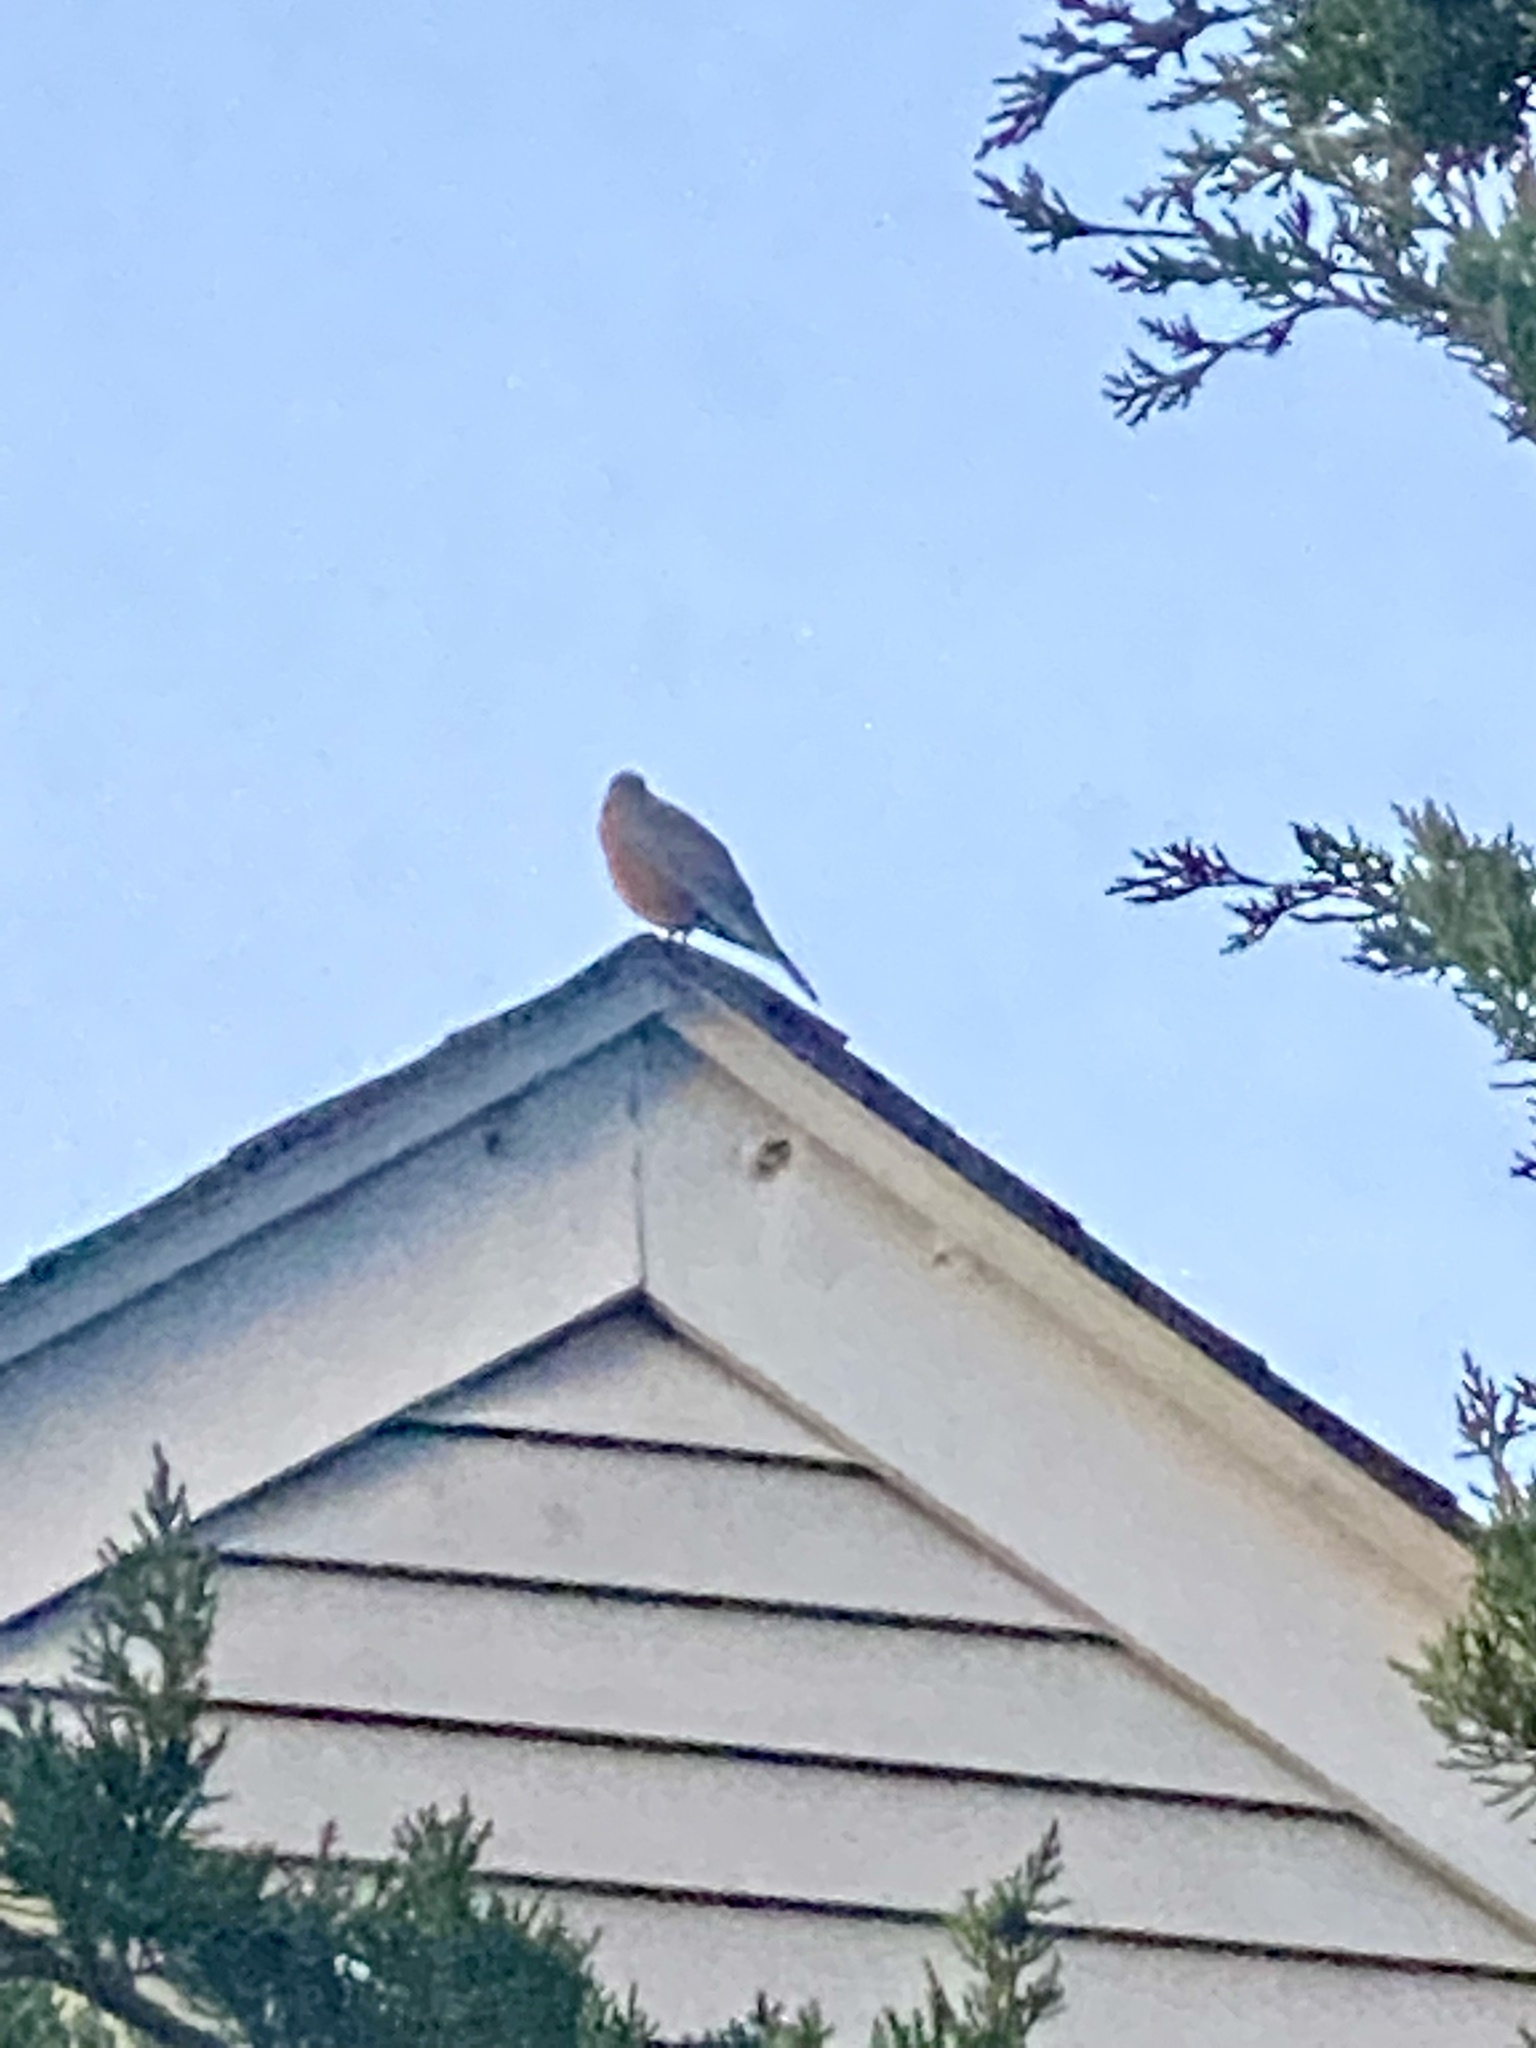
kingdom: Animalia
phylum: Chordata
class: Aves
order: Passeriformes
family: Turdidae
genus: Turdus
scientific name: Turdus migratorius
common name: American robin
